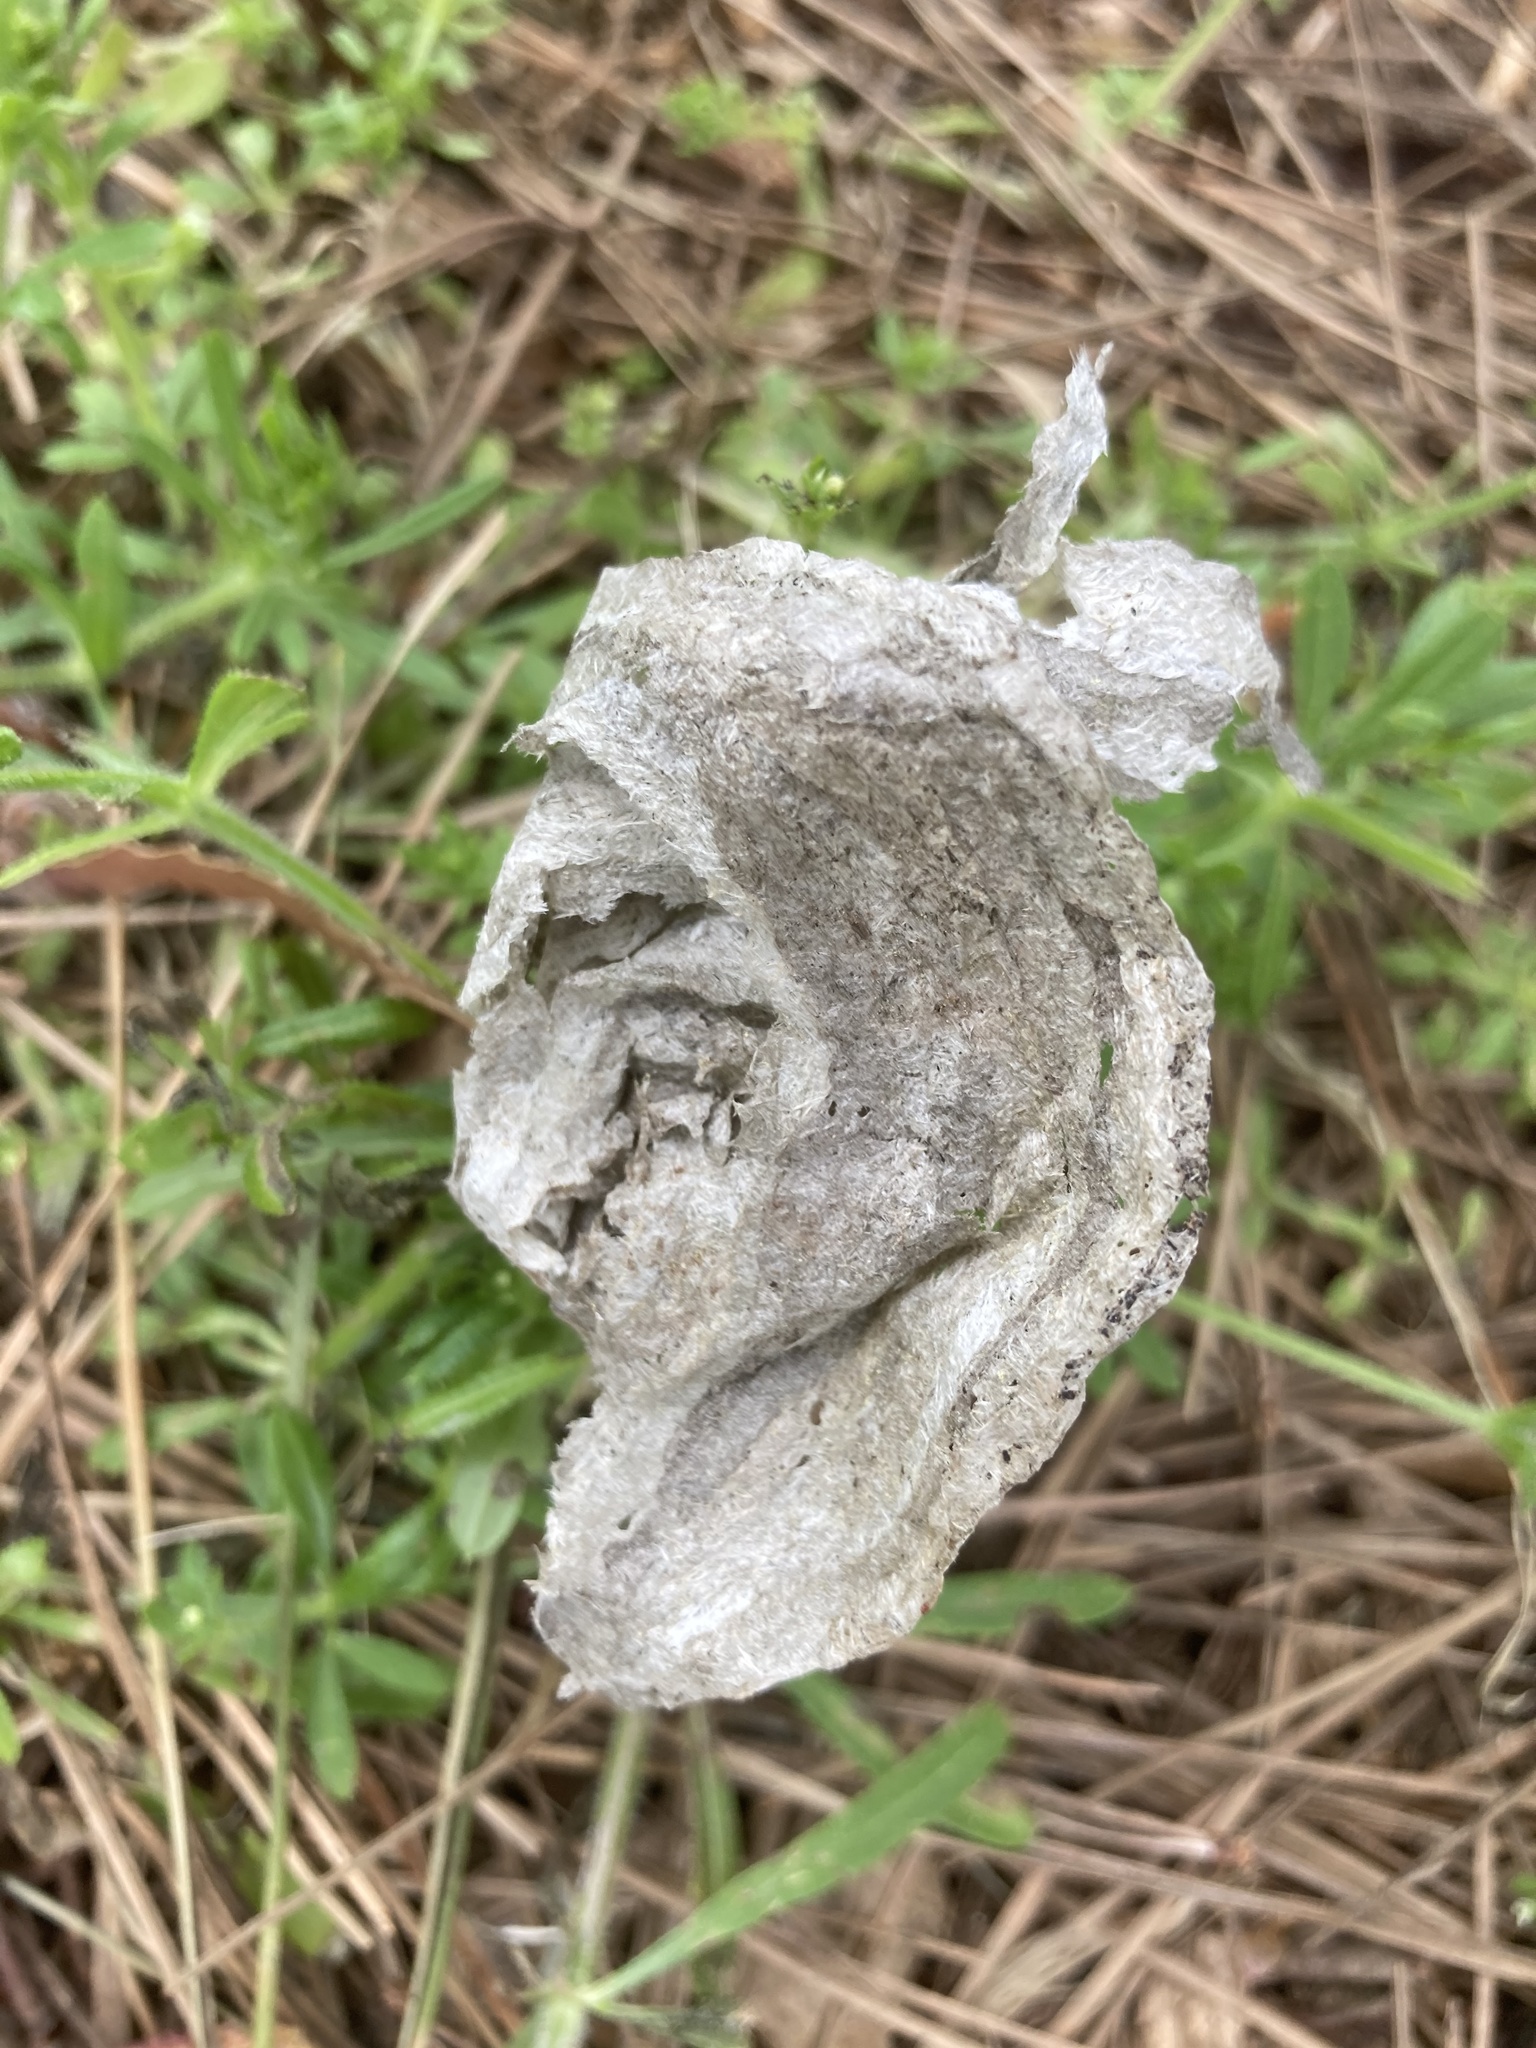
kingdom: Animalia
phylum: Arthropoda
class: Insecta
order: Hymenoptera
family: Vespidae
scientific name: Vespidae
